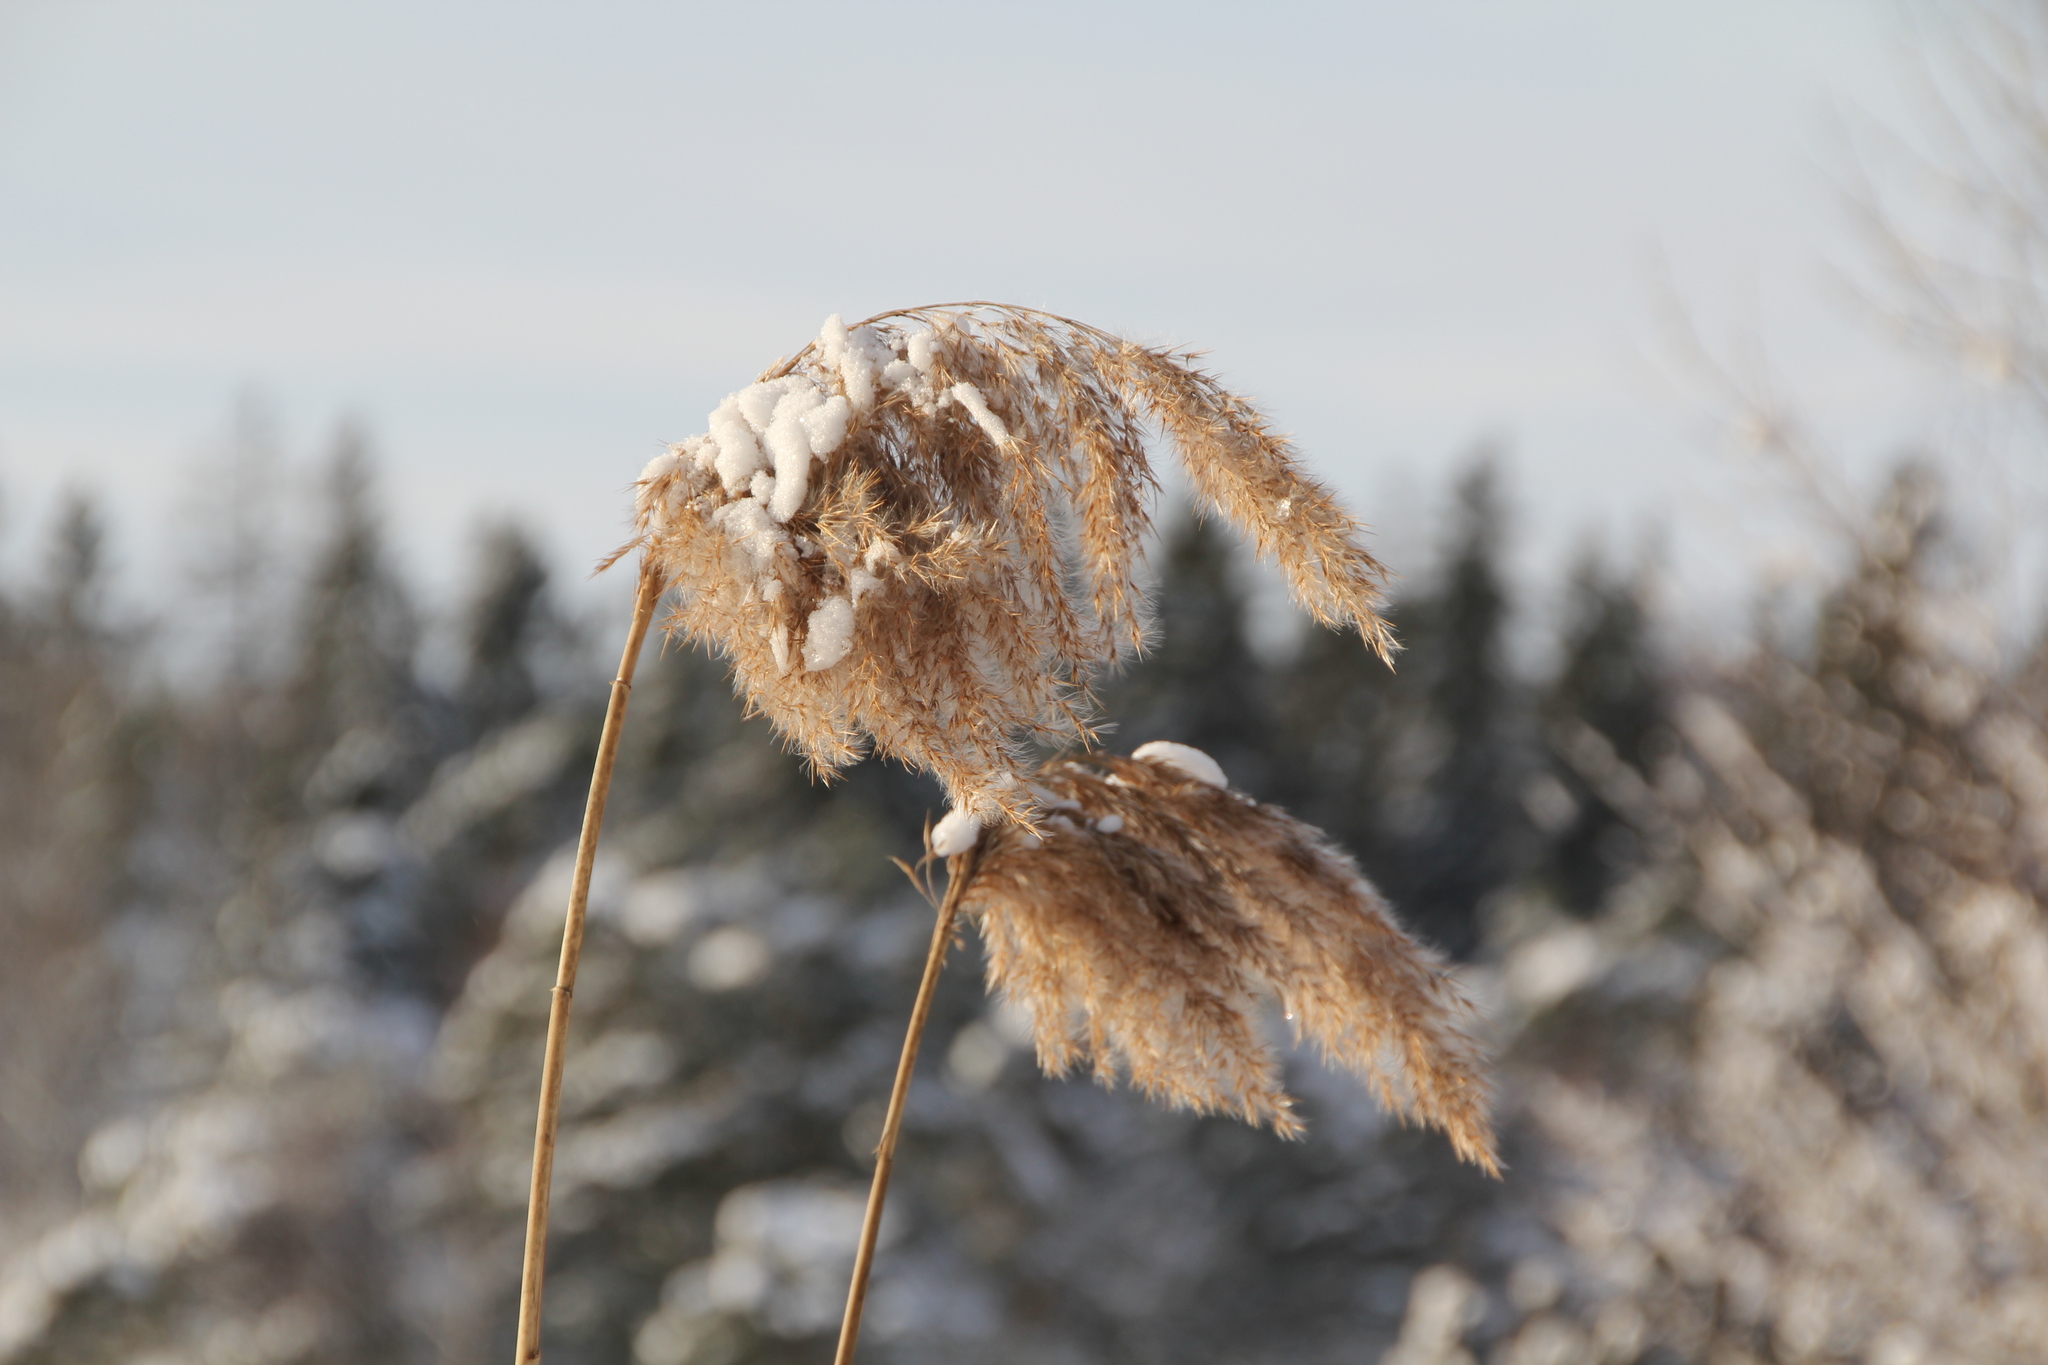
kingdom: Plantae
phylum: Tracheophyta
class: Liliopsida
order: Poales
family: Poaceae
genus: Phragmites
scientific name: Phragmites australis
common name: Common reed
